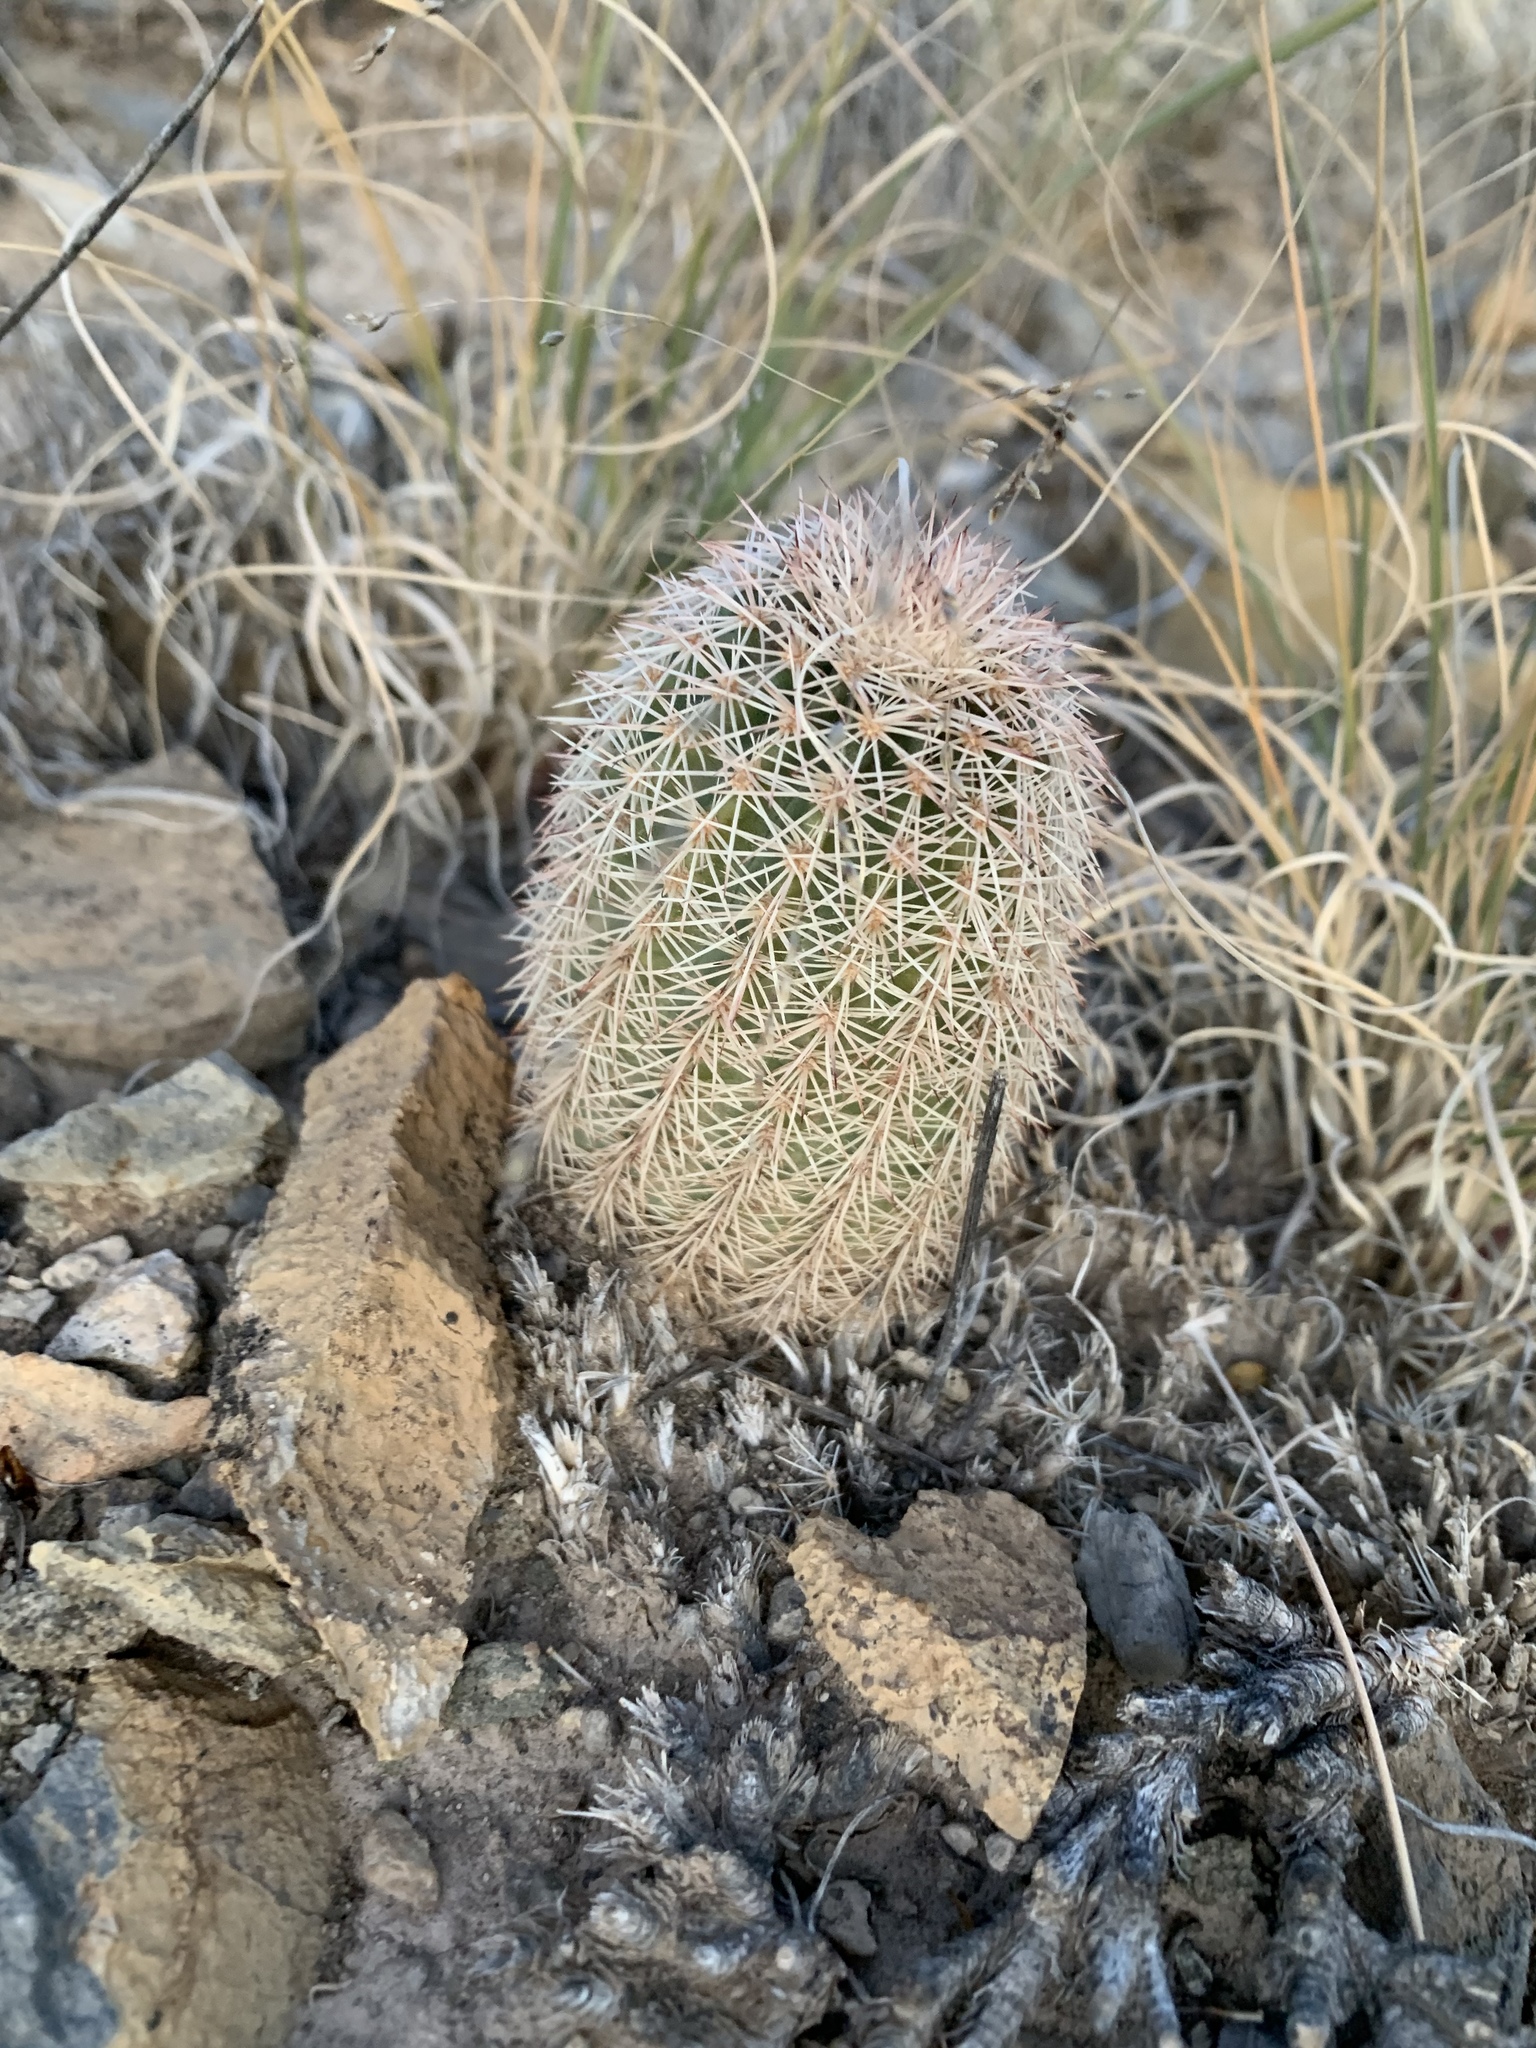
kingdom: Plantae
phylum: Tracheophyta
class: Magnoliopsida
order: Caryophyllales
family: Cactaceae
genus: Echinocereus
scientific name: Echinocereus dasyacanthus
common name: Spiny hedgehog cactus
